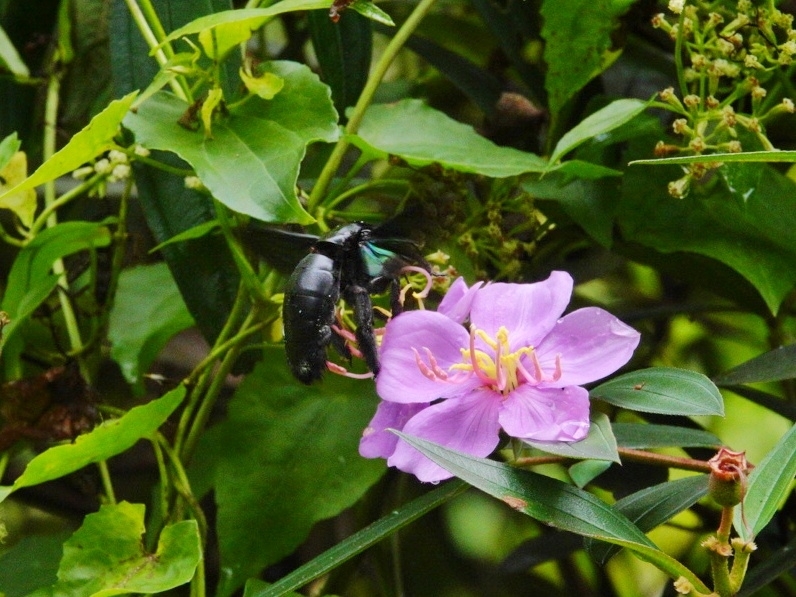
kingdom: Animalia
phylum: Arthropoda
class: Insecta
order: Hymenoptera
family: Apidae
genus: Xylocopa
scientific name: Xylocopa latipes
